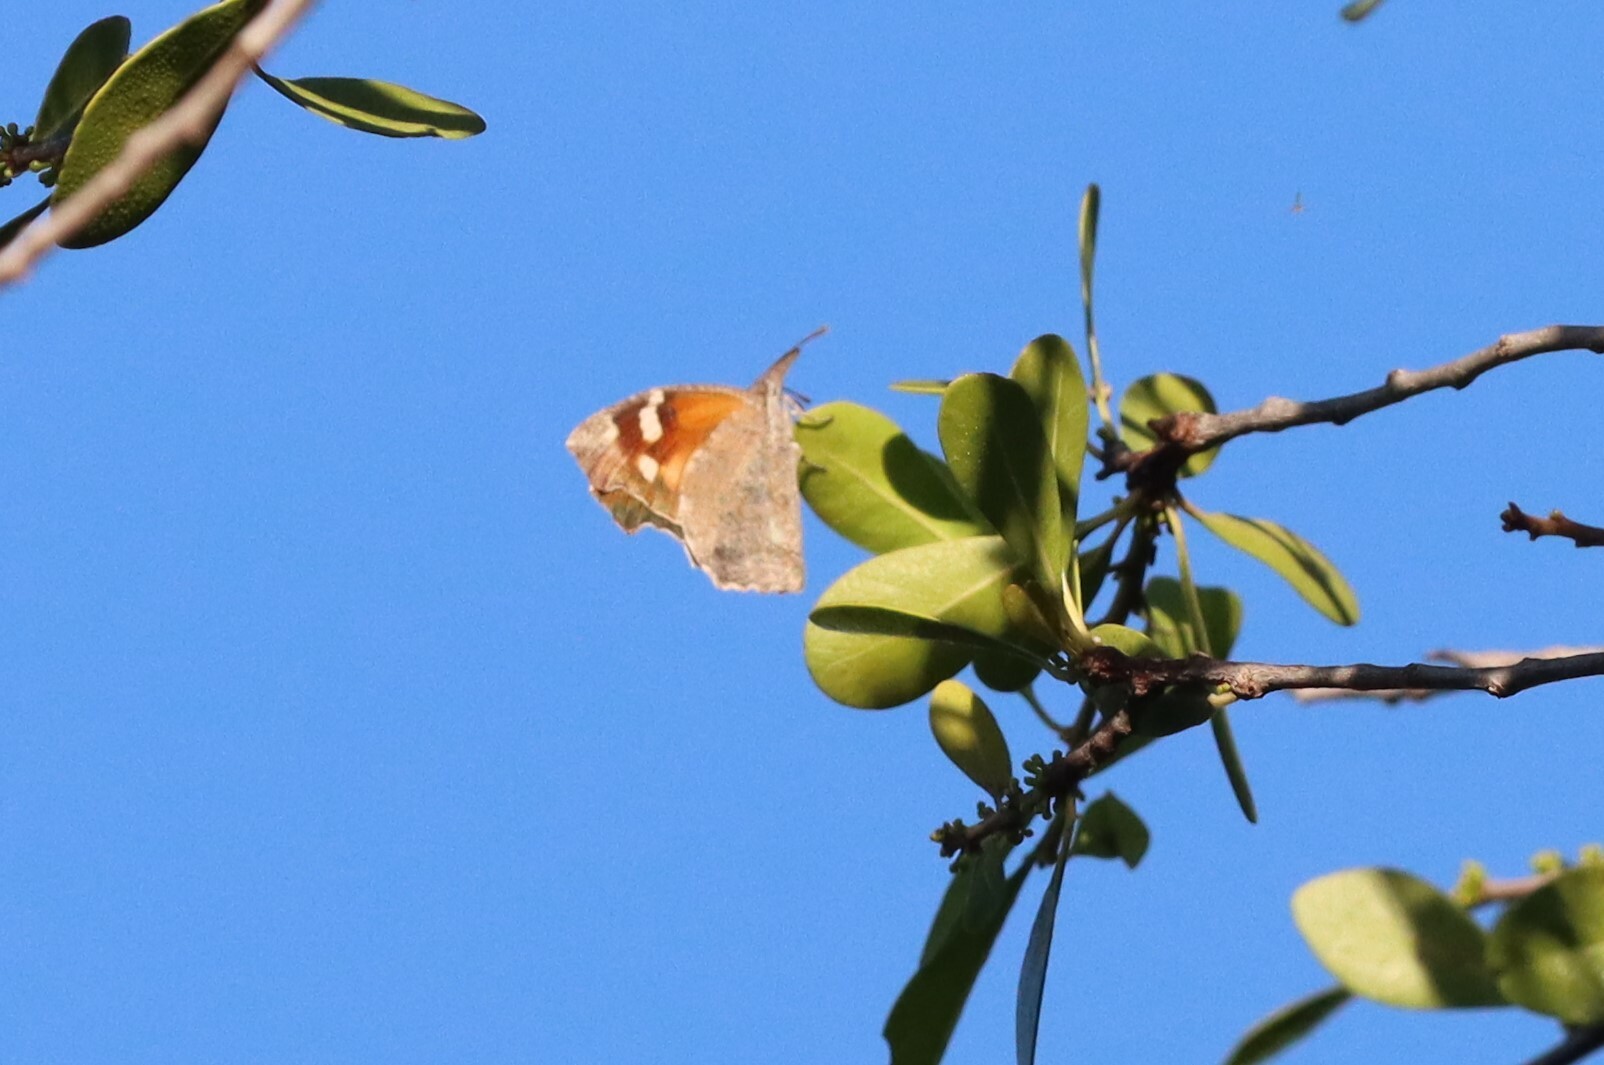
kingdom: Animalia
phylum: Arthropoda
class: Insecta
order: Lepidoptera
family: Nymphalidae
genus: Libytheana
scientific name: Libytheana carinenta
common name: American snout
